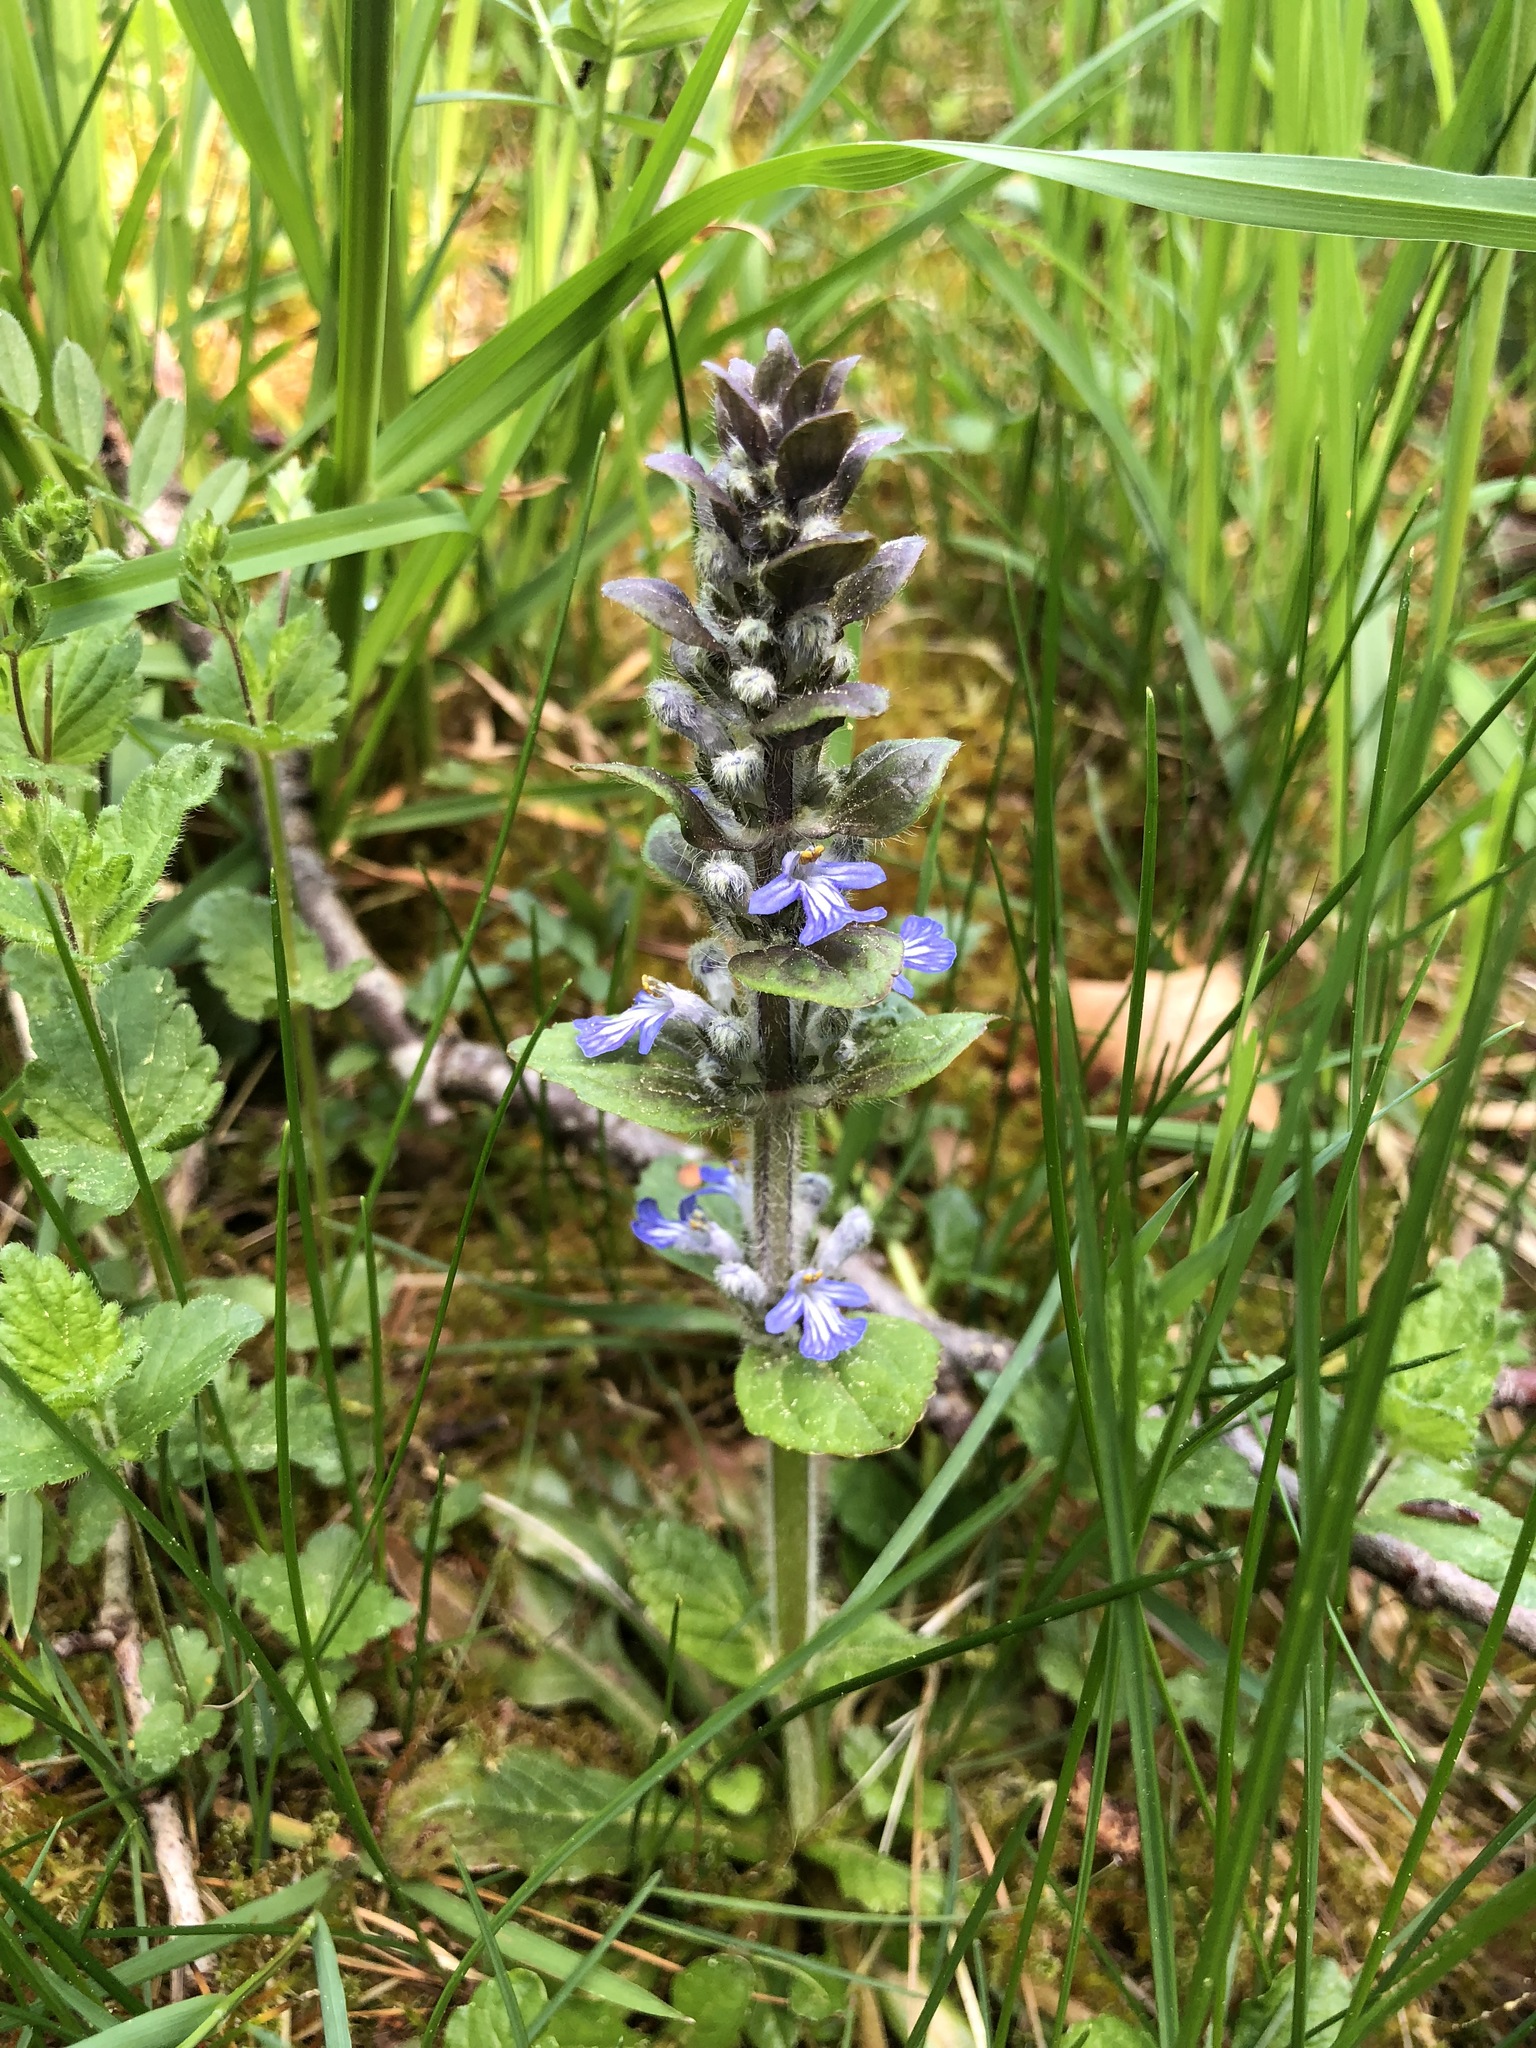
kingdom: Plantae
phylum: Tracheophyta
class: Magnoliopsida
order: Lamiales
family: Lamiaceae
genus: Ajuga
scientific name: Ajuga reptans
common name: Bugle
